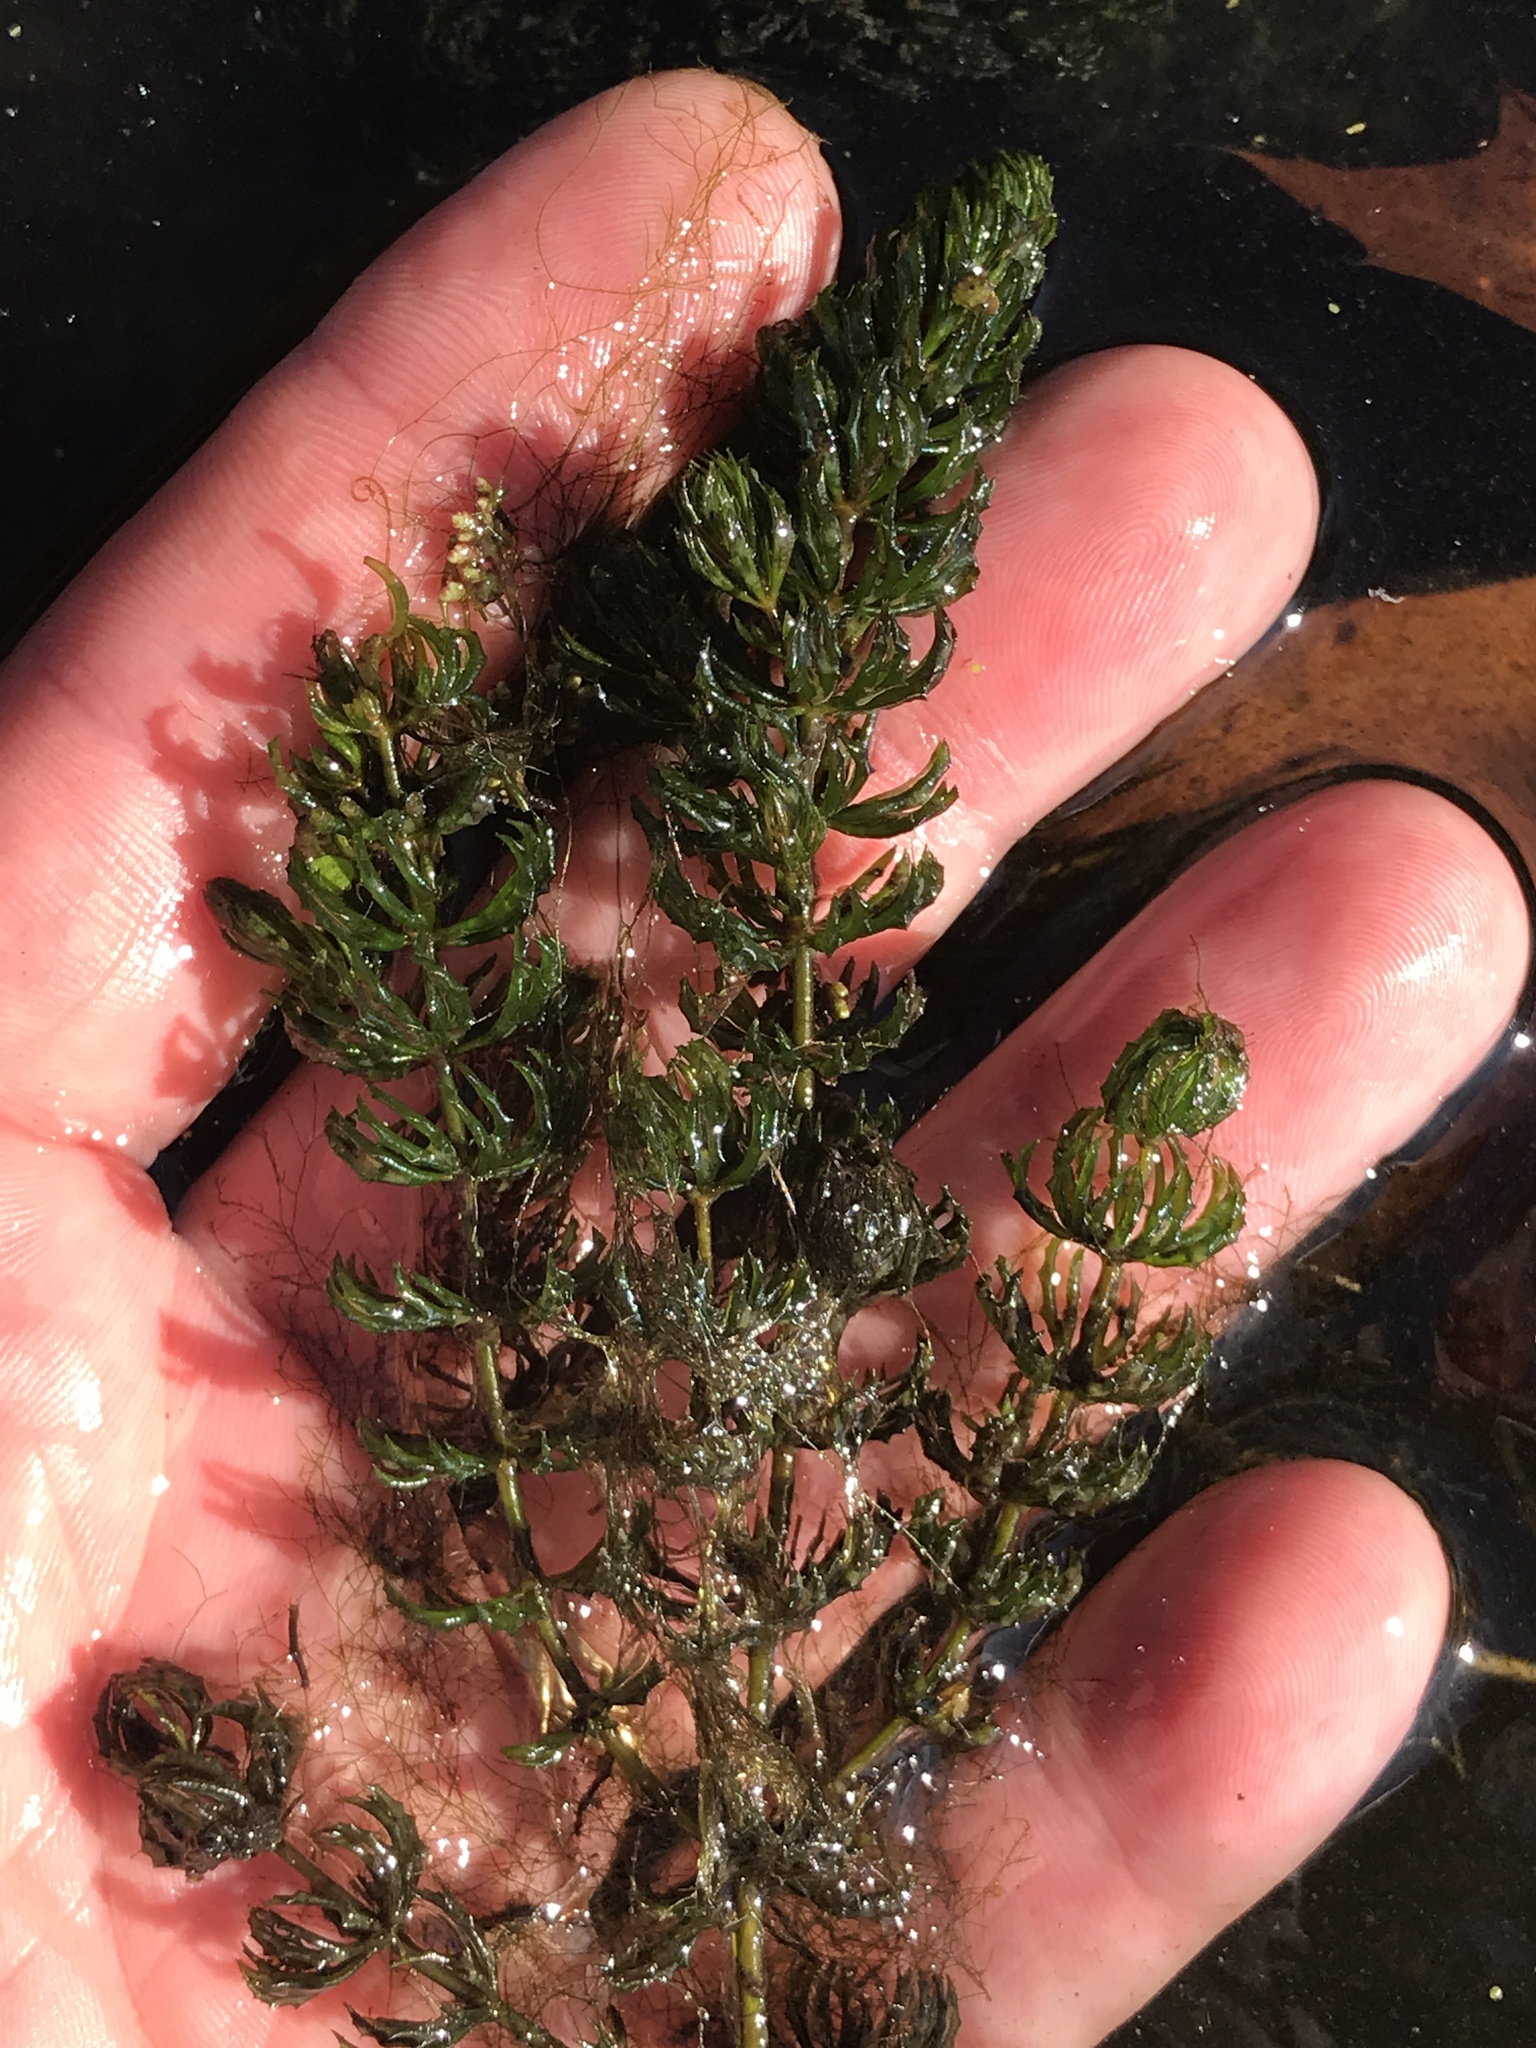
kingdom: Plantae
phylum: Tracheophyta
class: Magnoliopsida
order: Ceratophyllales
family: Ceratophyllaceae
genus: Ceratophyllum
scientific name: Ceratophyllum demersum
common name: Rigid hornwort
